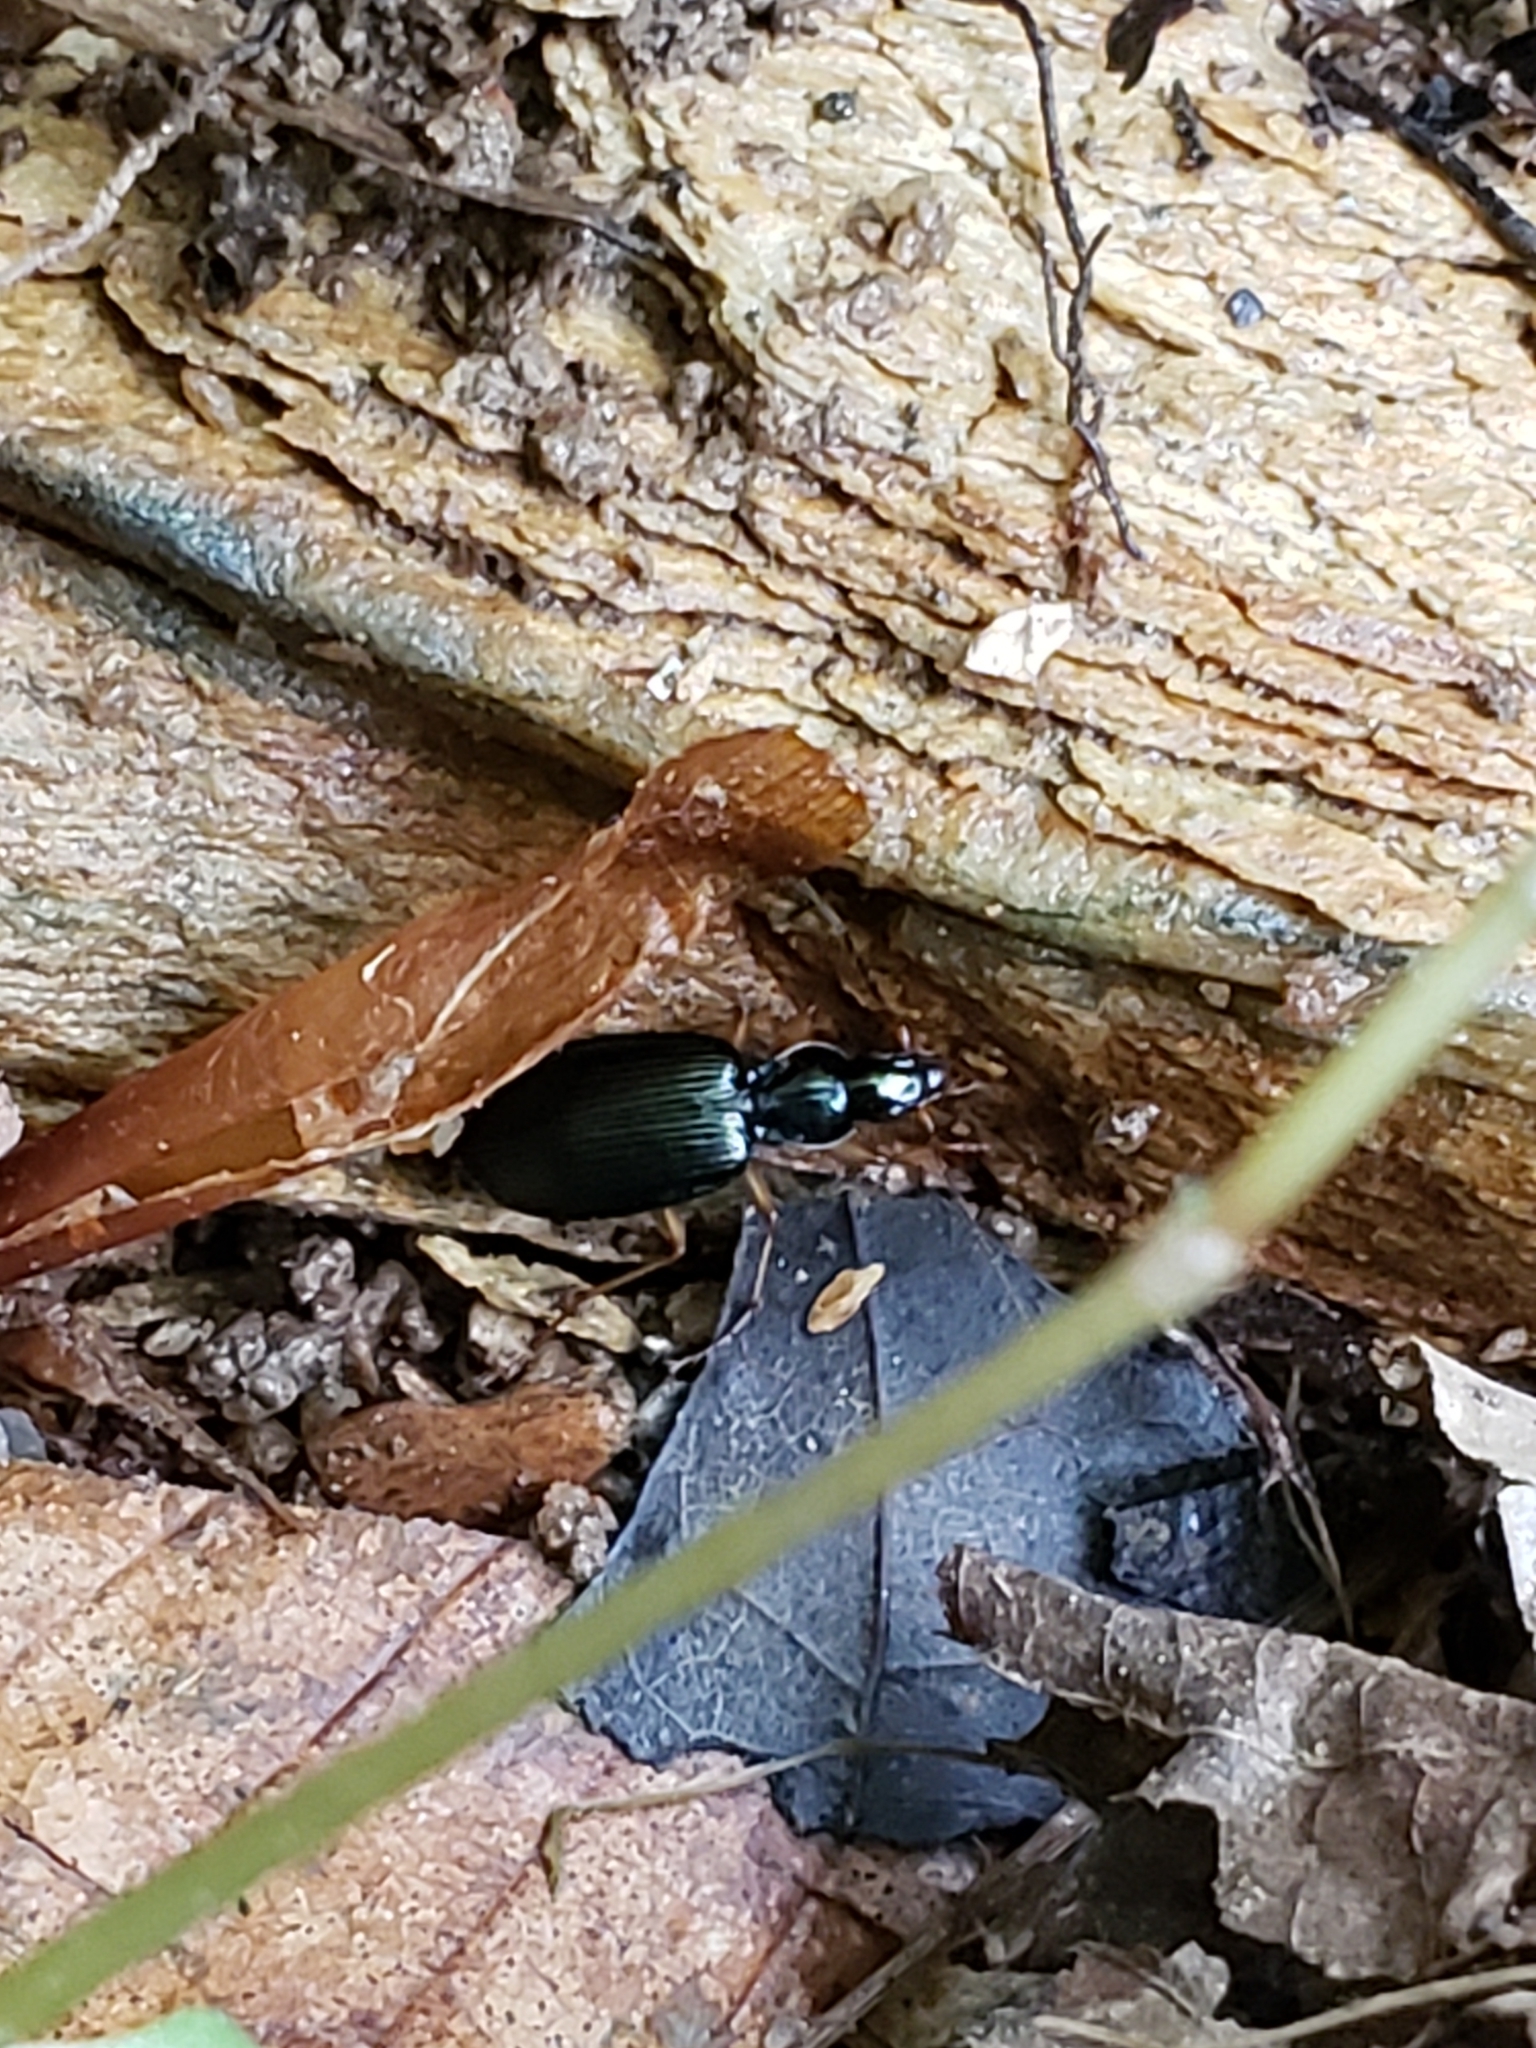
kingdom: Animalia
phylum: Arthropoda
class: Insecta
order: Coleoptera
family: Carabidae
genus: Agonum
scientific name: Agonum extensicolle
